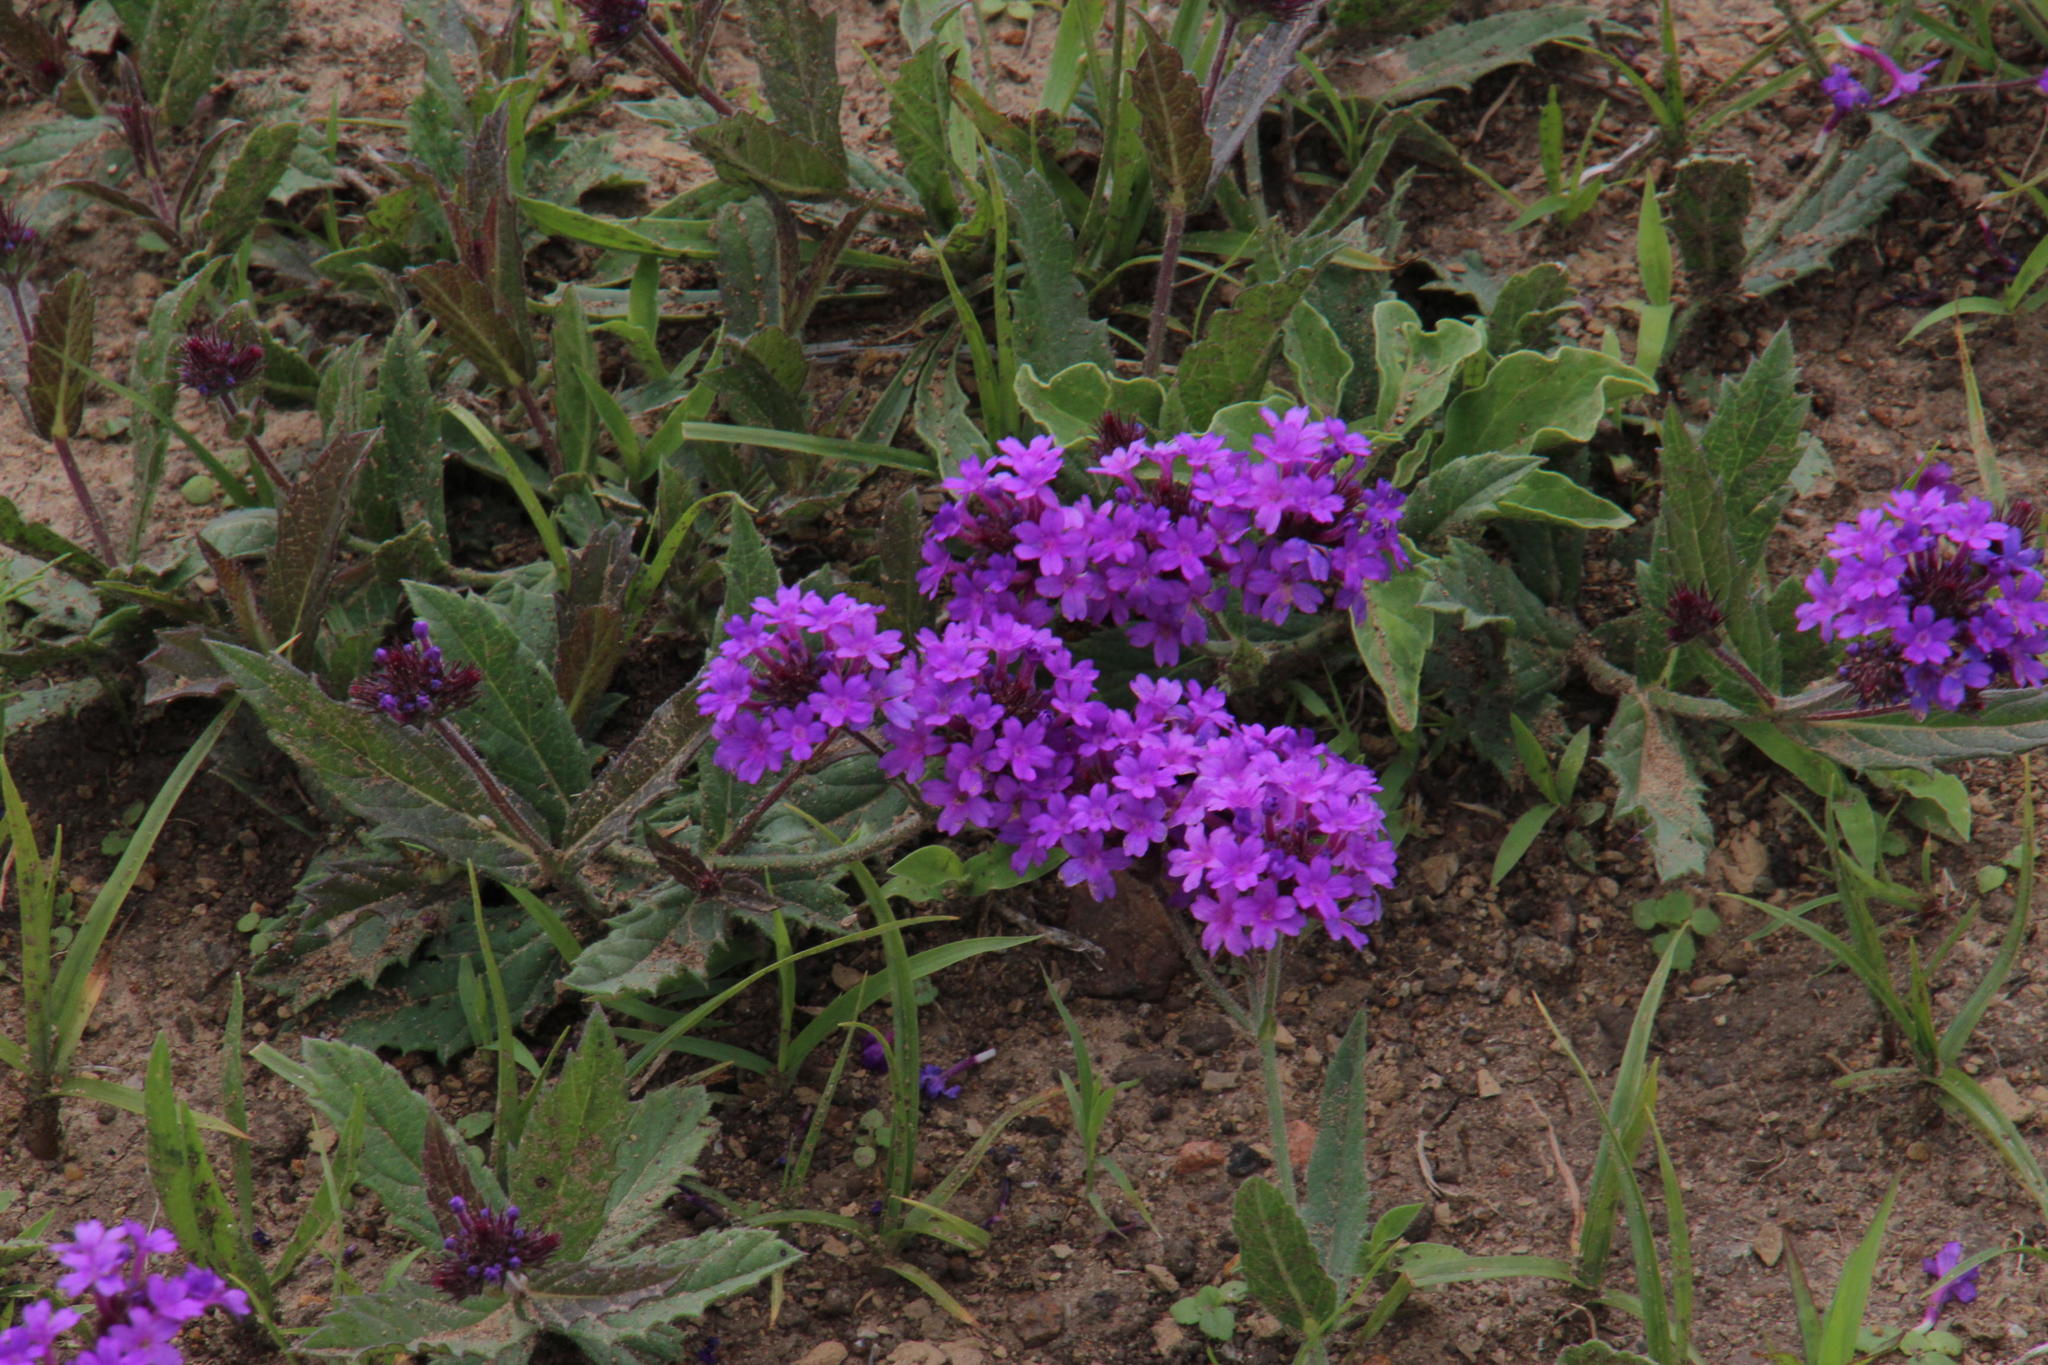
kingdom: Plantae
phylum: Tracheophyta
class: Magnoliopsida
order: Lamiales
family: Verbenaceae
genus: Verbena
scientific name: Verbena rigida
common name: Slender vervain
